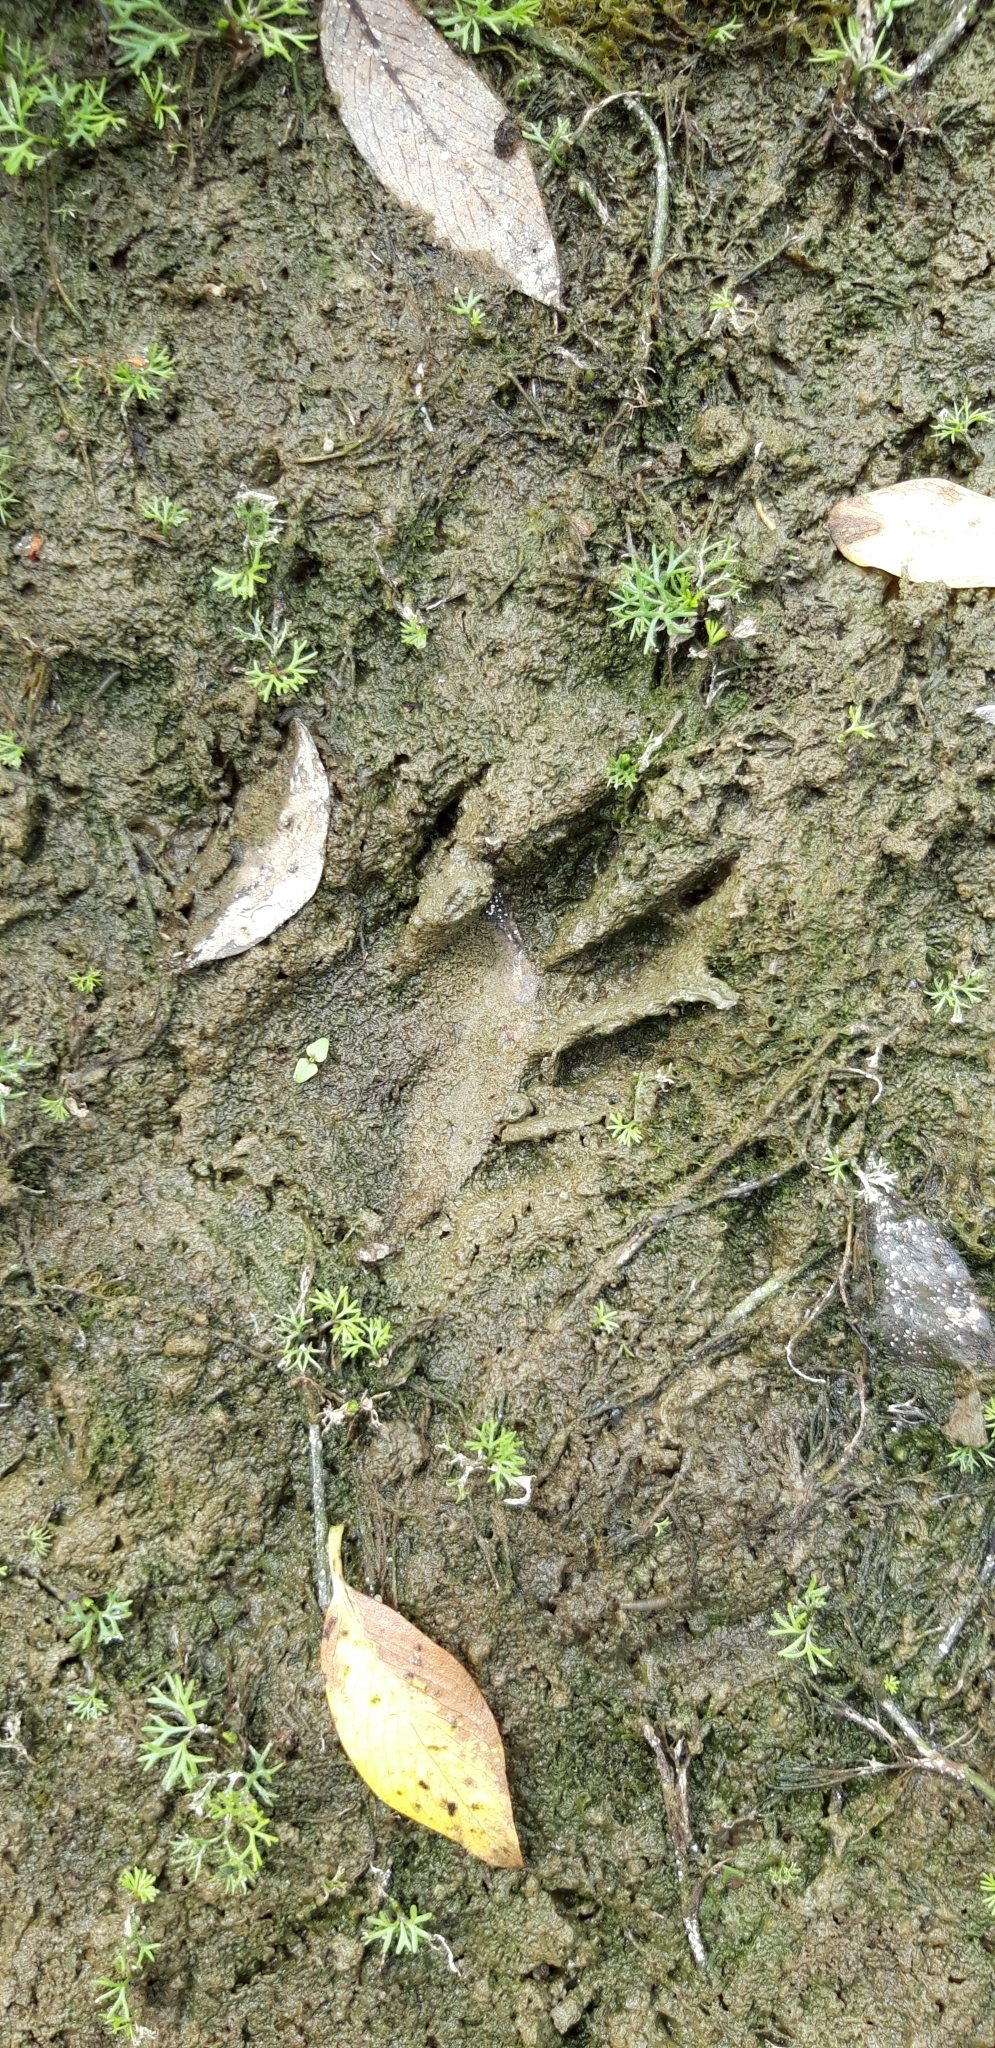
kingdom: Animalia
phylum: Chordata
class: Mammalia
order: Carnivora
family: Procyonidae
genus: Procyon
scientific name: Procyon lotor
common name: Raccoon
